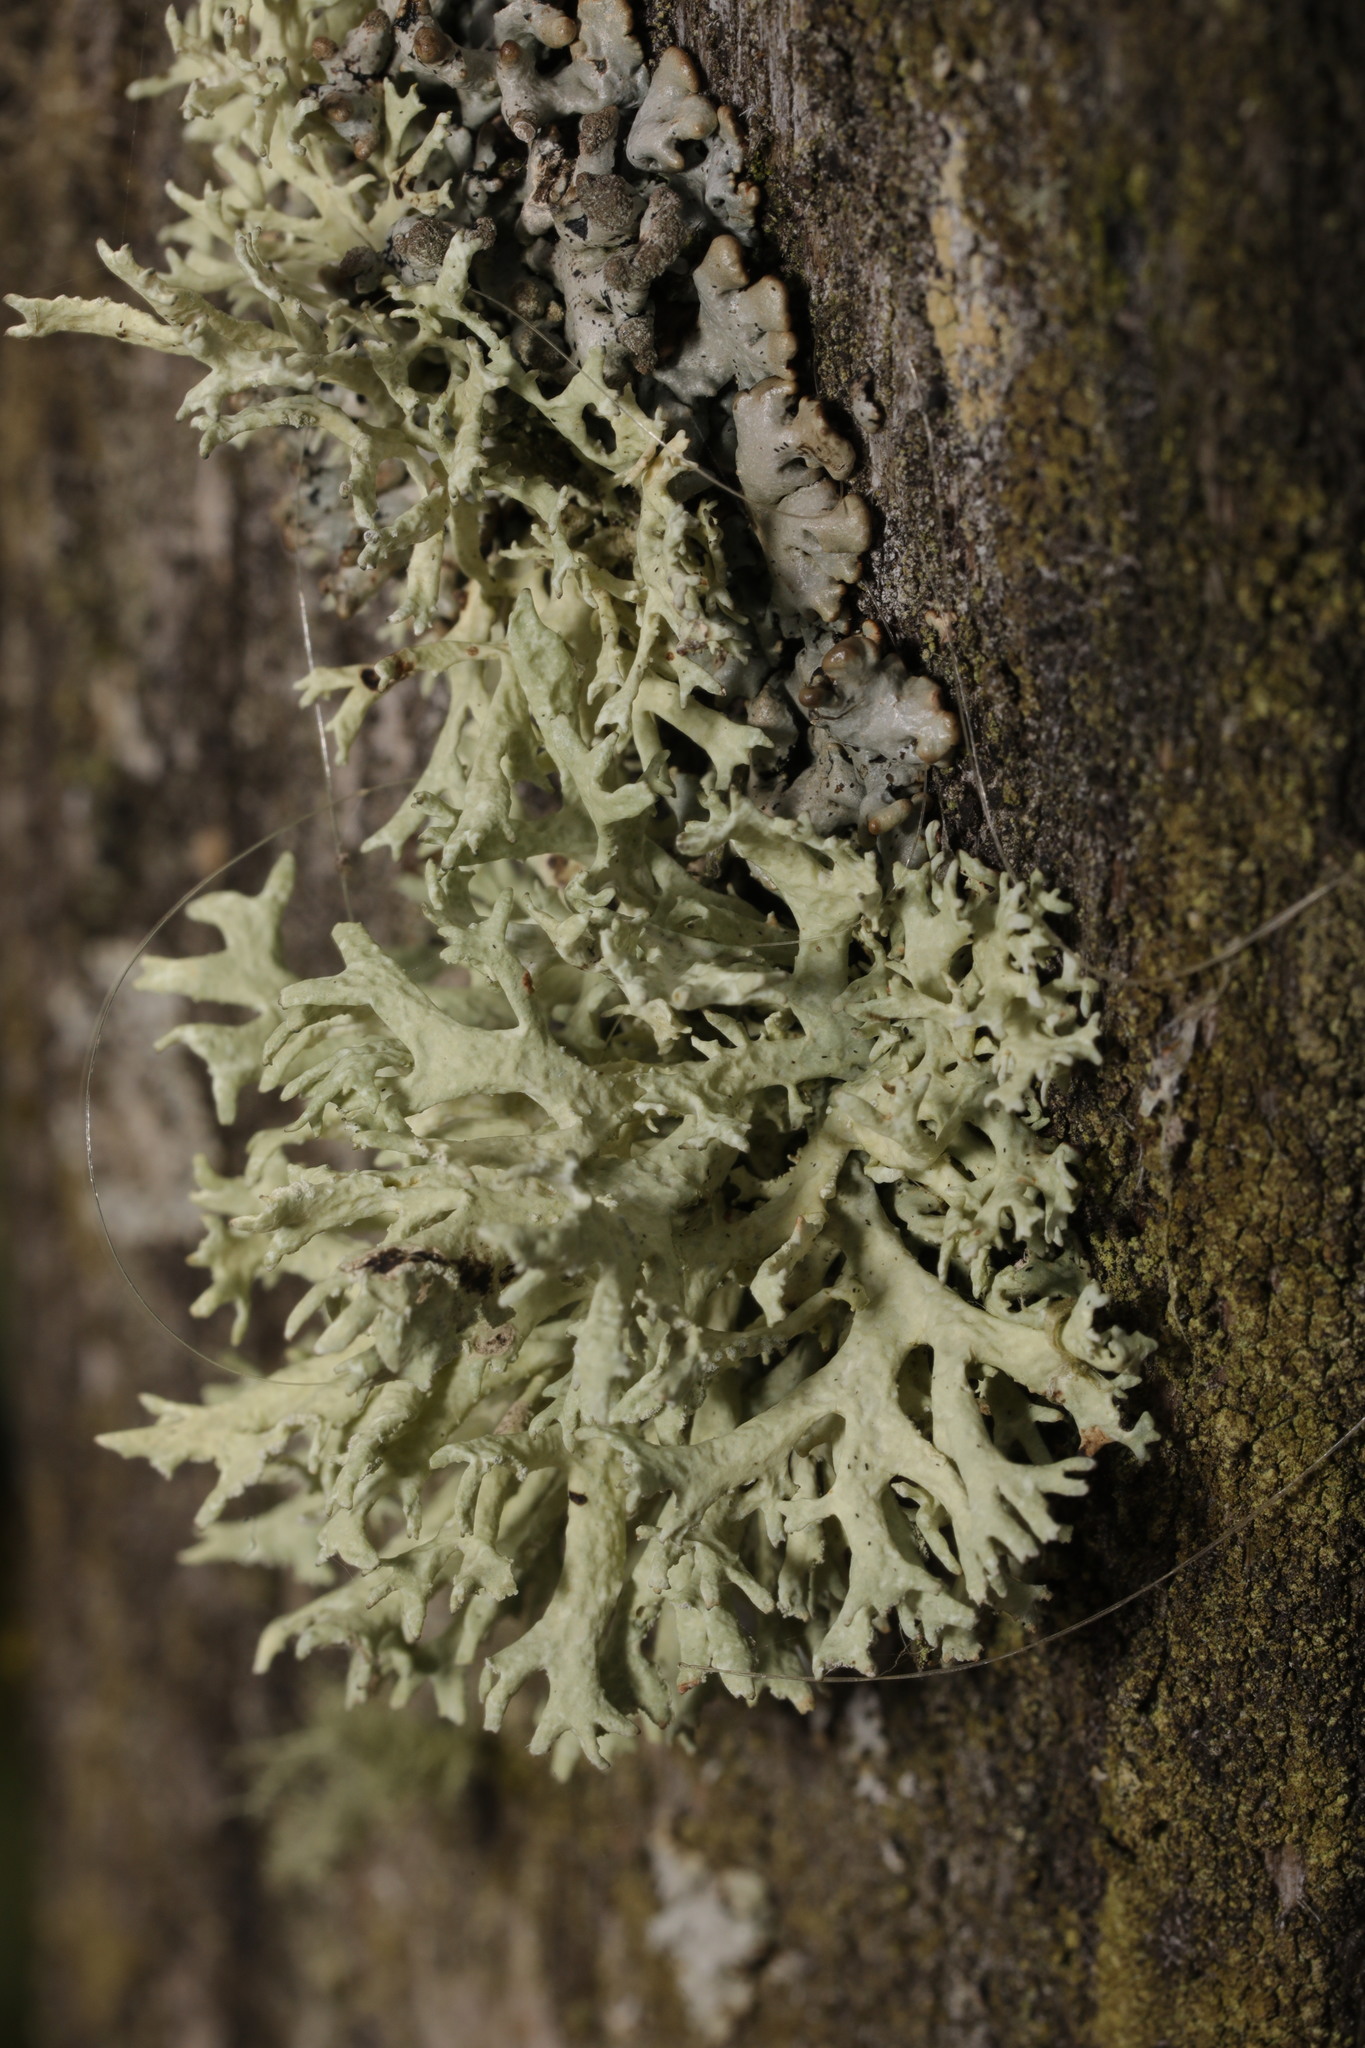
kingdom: Fungi
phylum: Ascomycota
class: Lecanoromycetes
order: Lecanorales
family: Parmeliaceae
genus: Evernia
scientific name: Evernia prunastri
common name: Oak moss
